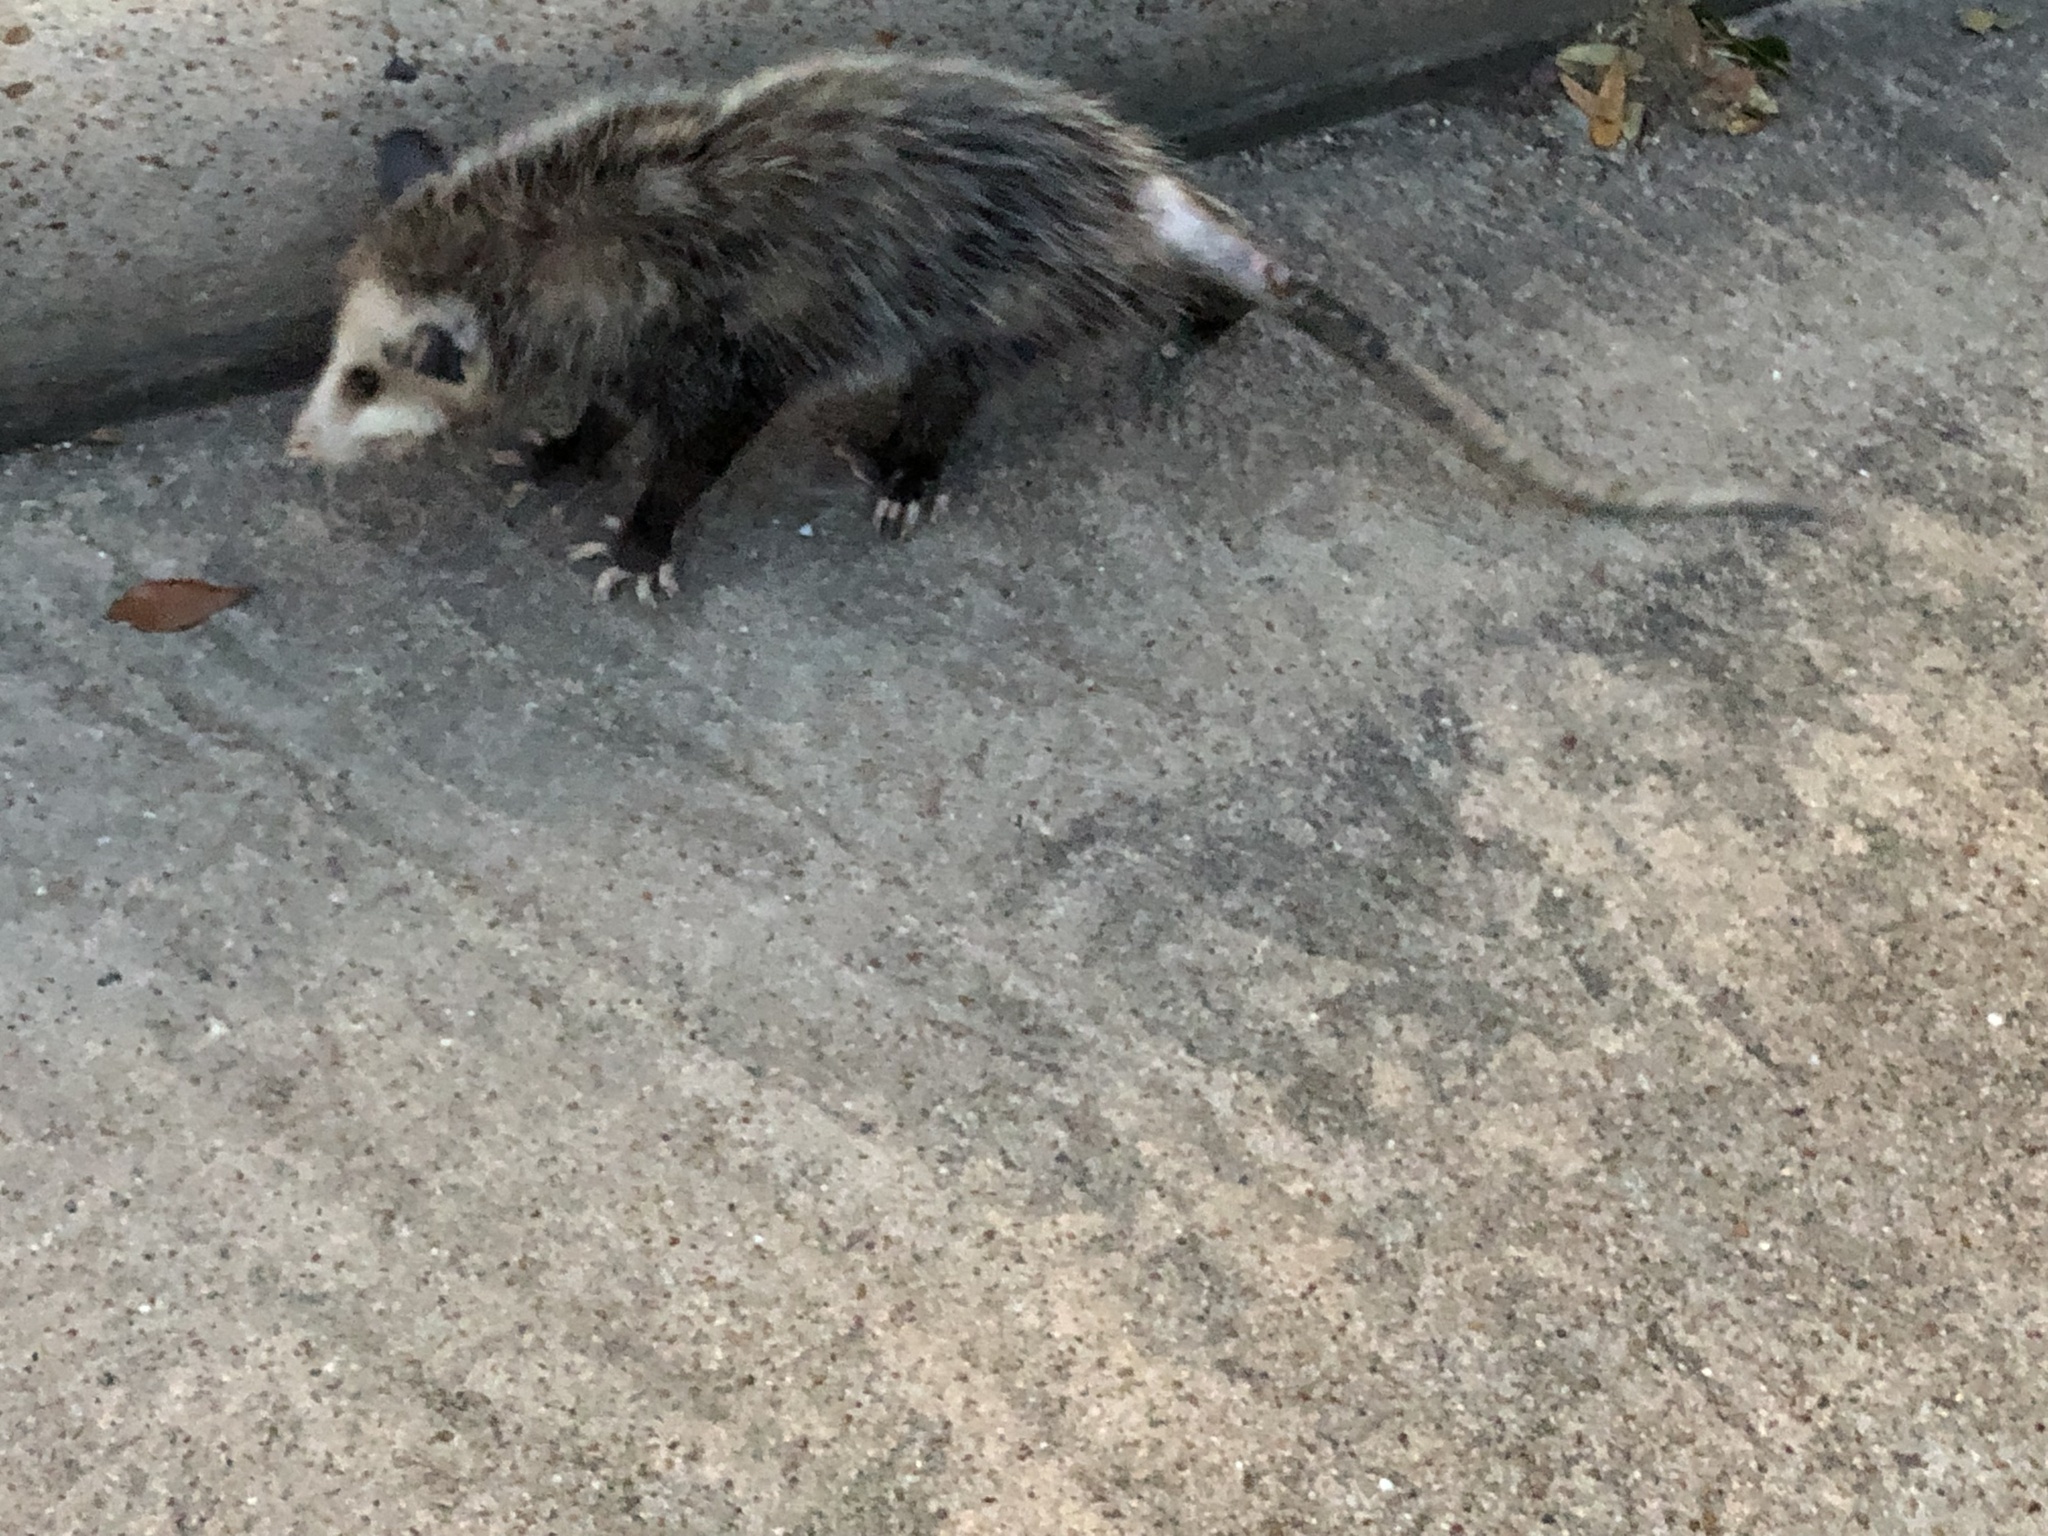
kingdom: Animalia
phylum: Chordata
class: Mammalia
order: Didelphimorphia
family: Didelphidae
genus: Didelphis
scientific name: Didelphis virginiana
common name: Virginia opossum
